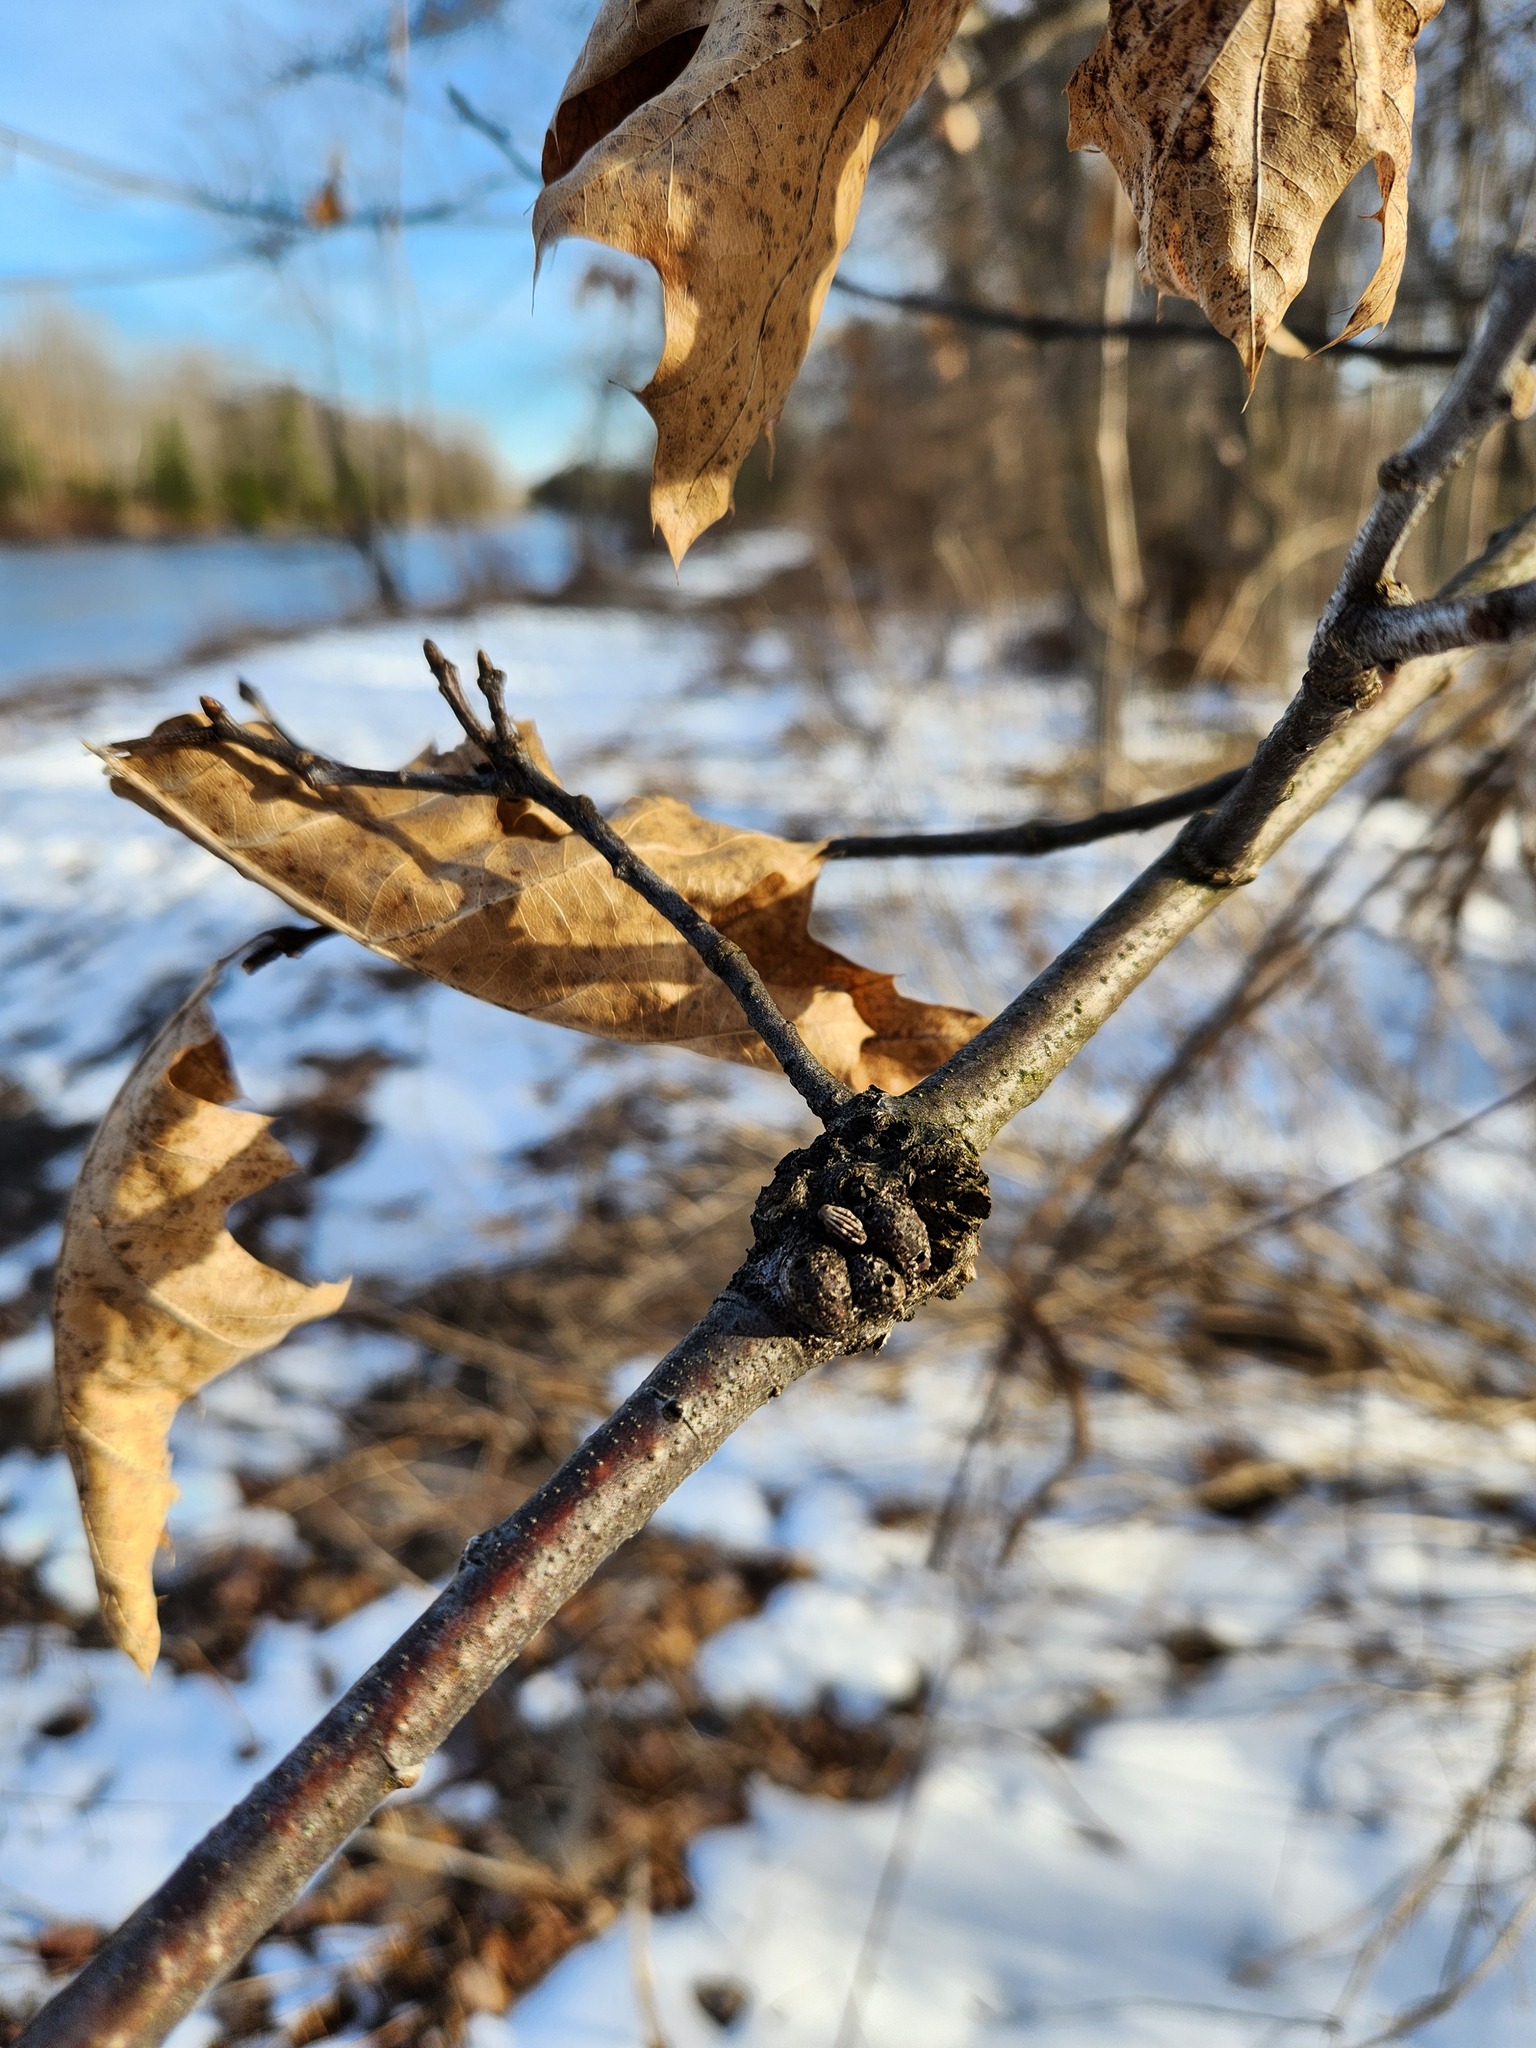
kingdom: Animalia
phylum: Arthropoda
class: Insecta
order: Hymenoptera
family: Cynipidae
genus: Callirhytis
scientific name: Callirhytis
